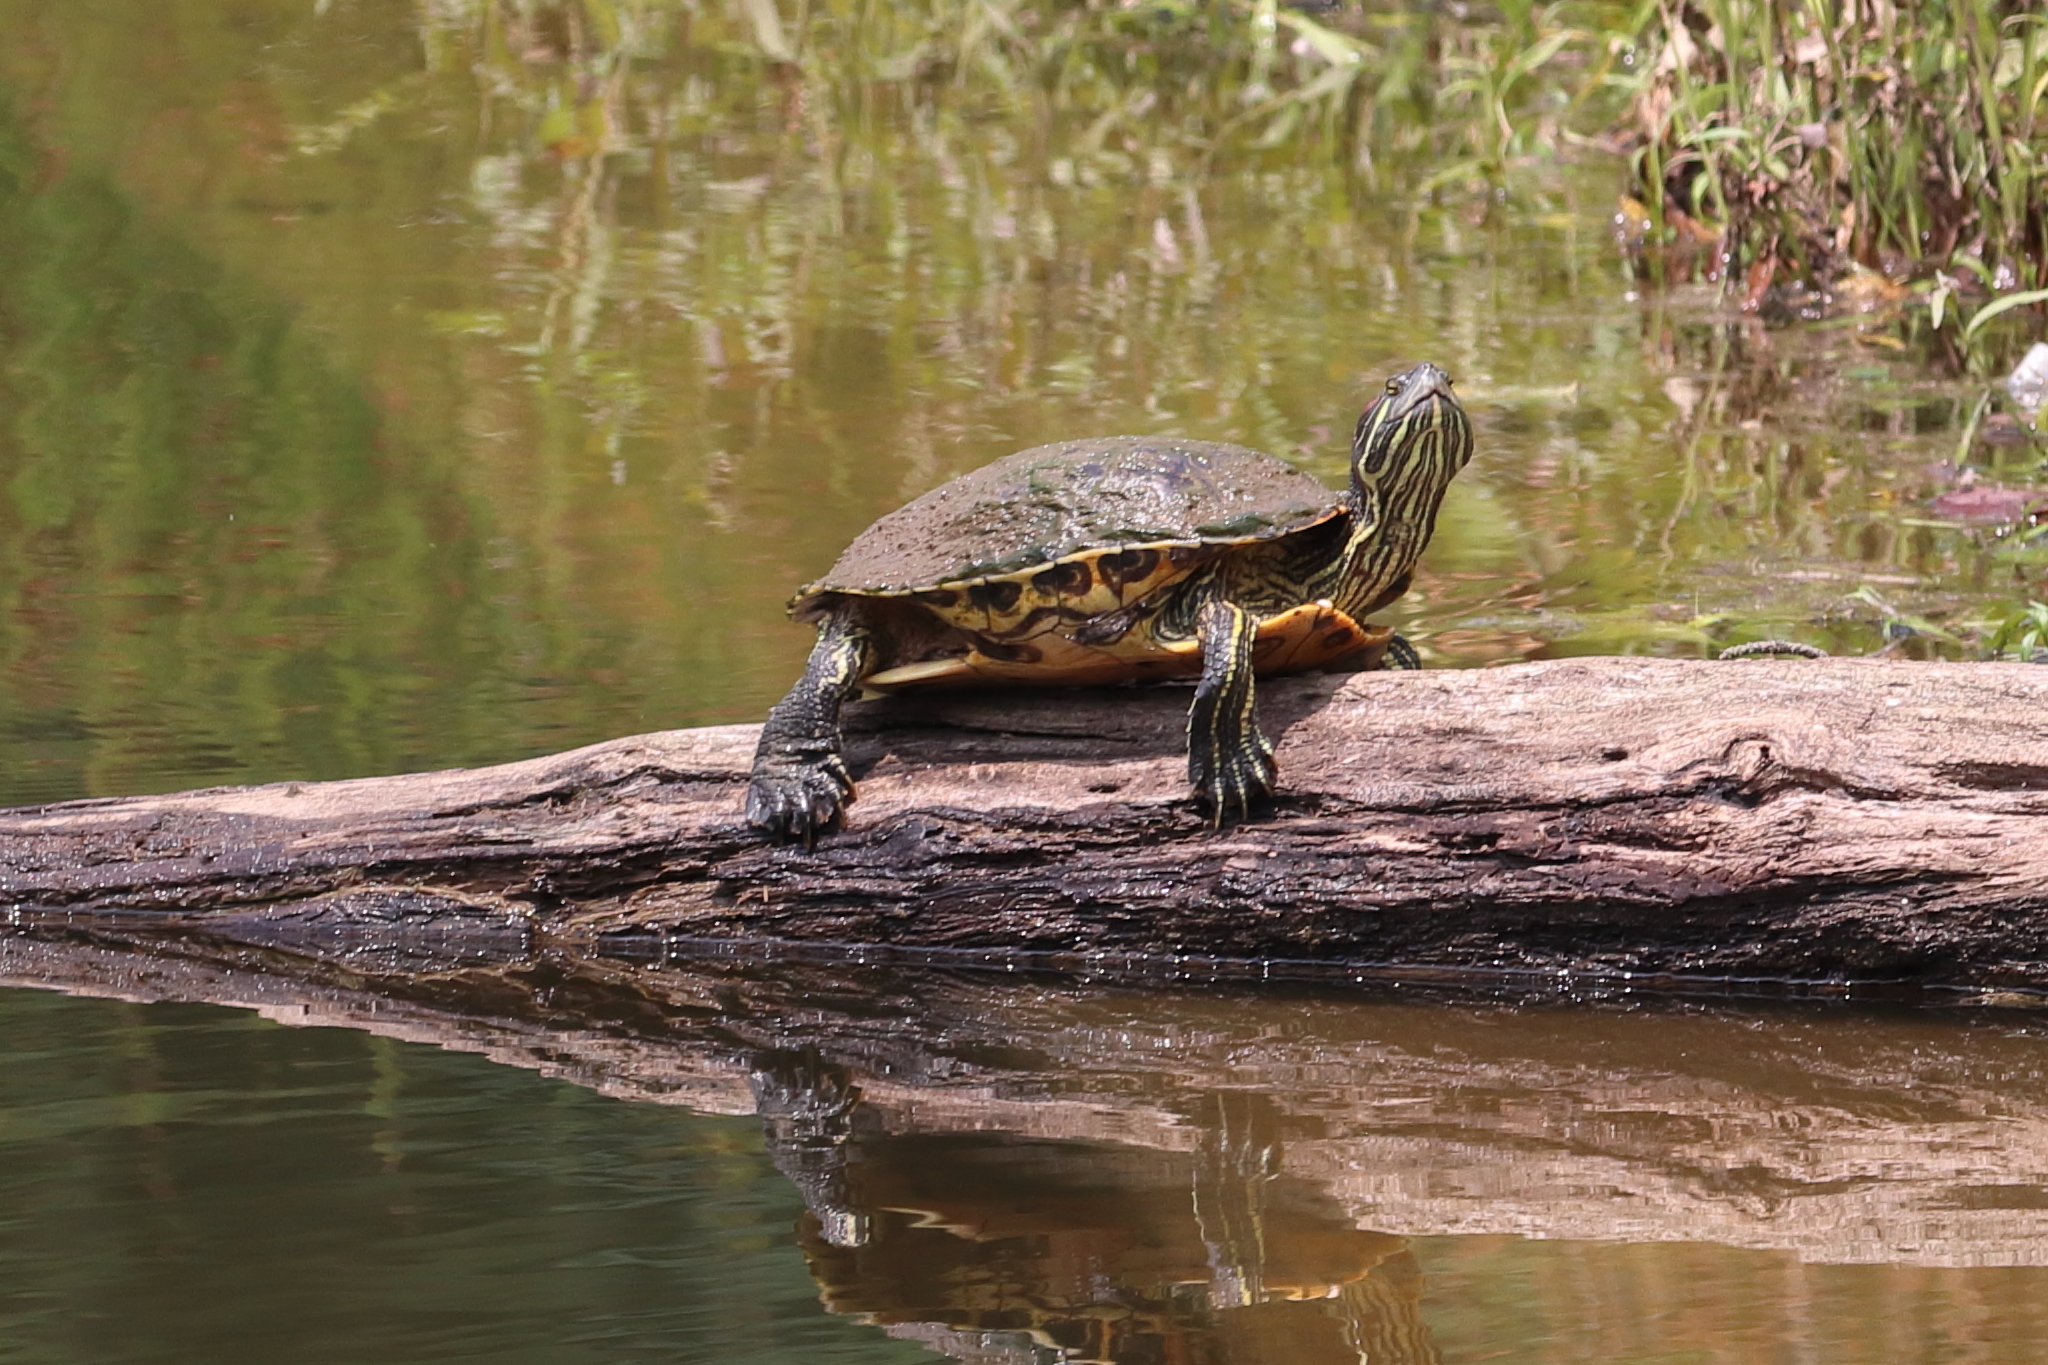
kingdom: Animalia
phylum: Chordata
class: Testudines
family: Emydidae
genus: Trachemys
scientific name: Trachemys scripta
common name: Slider
